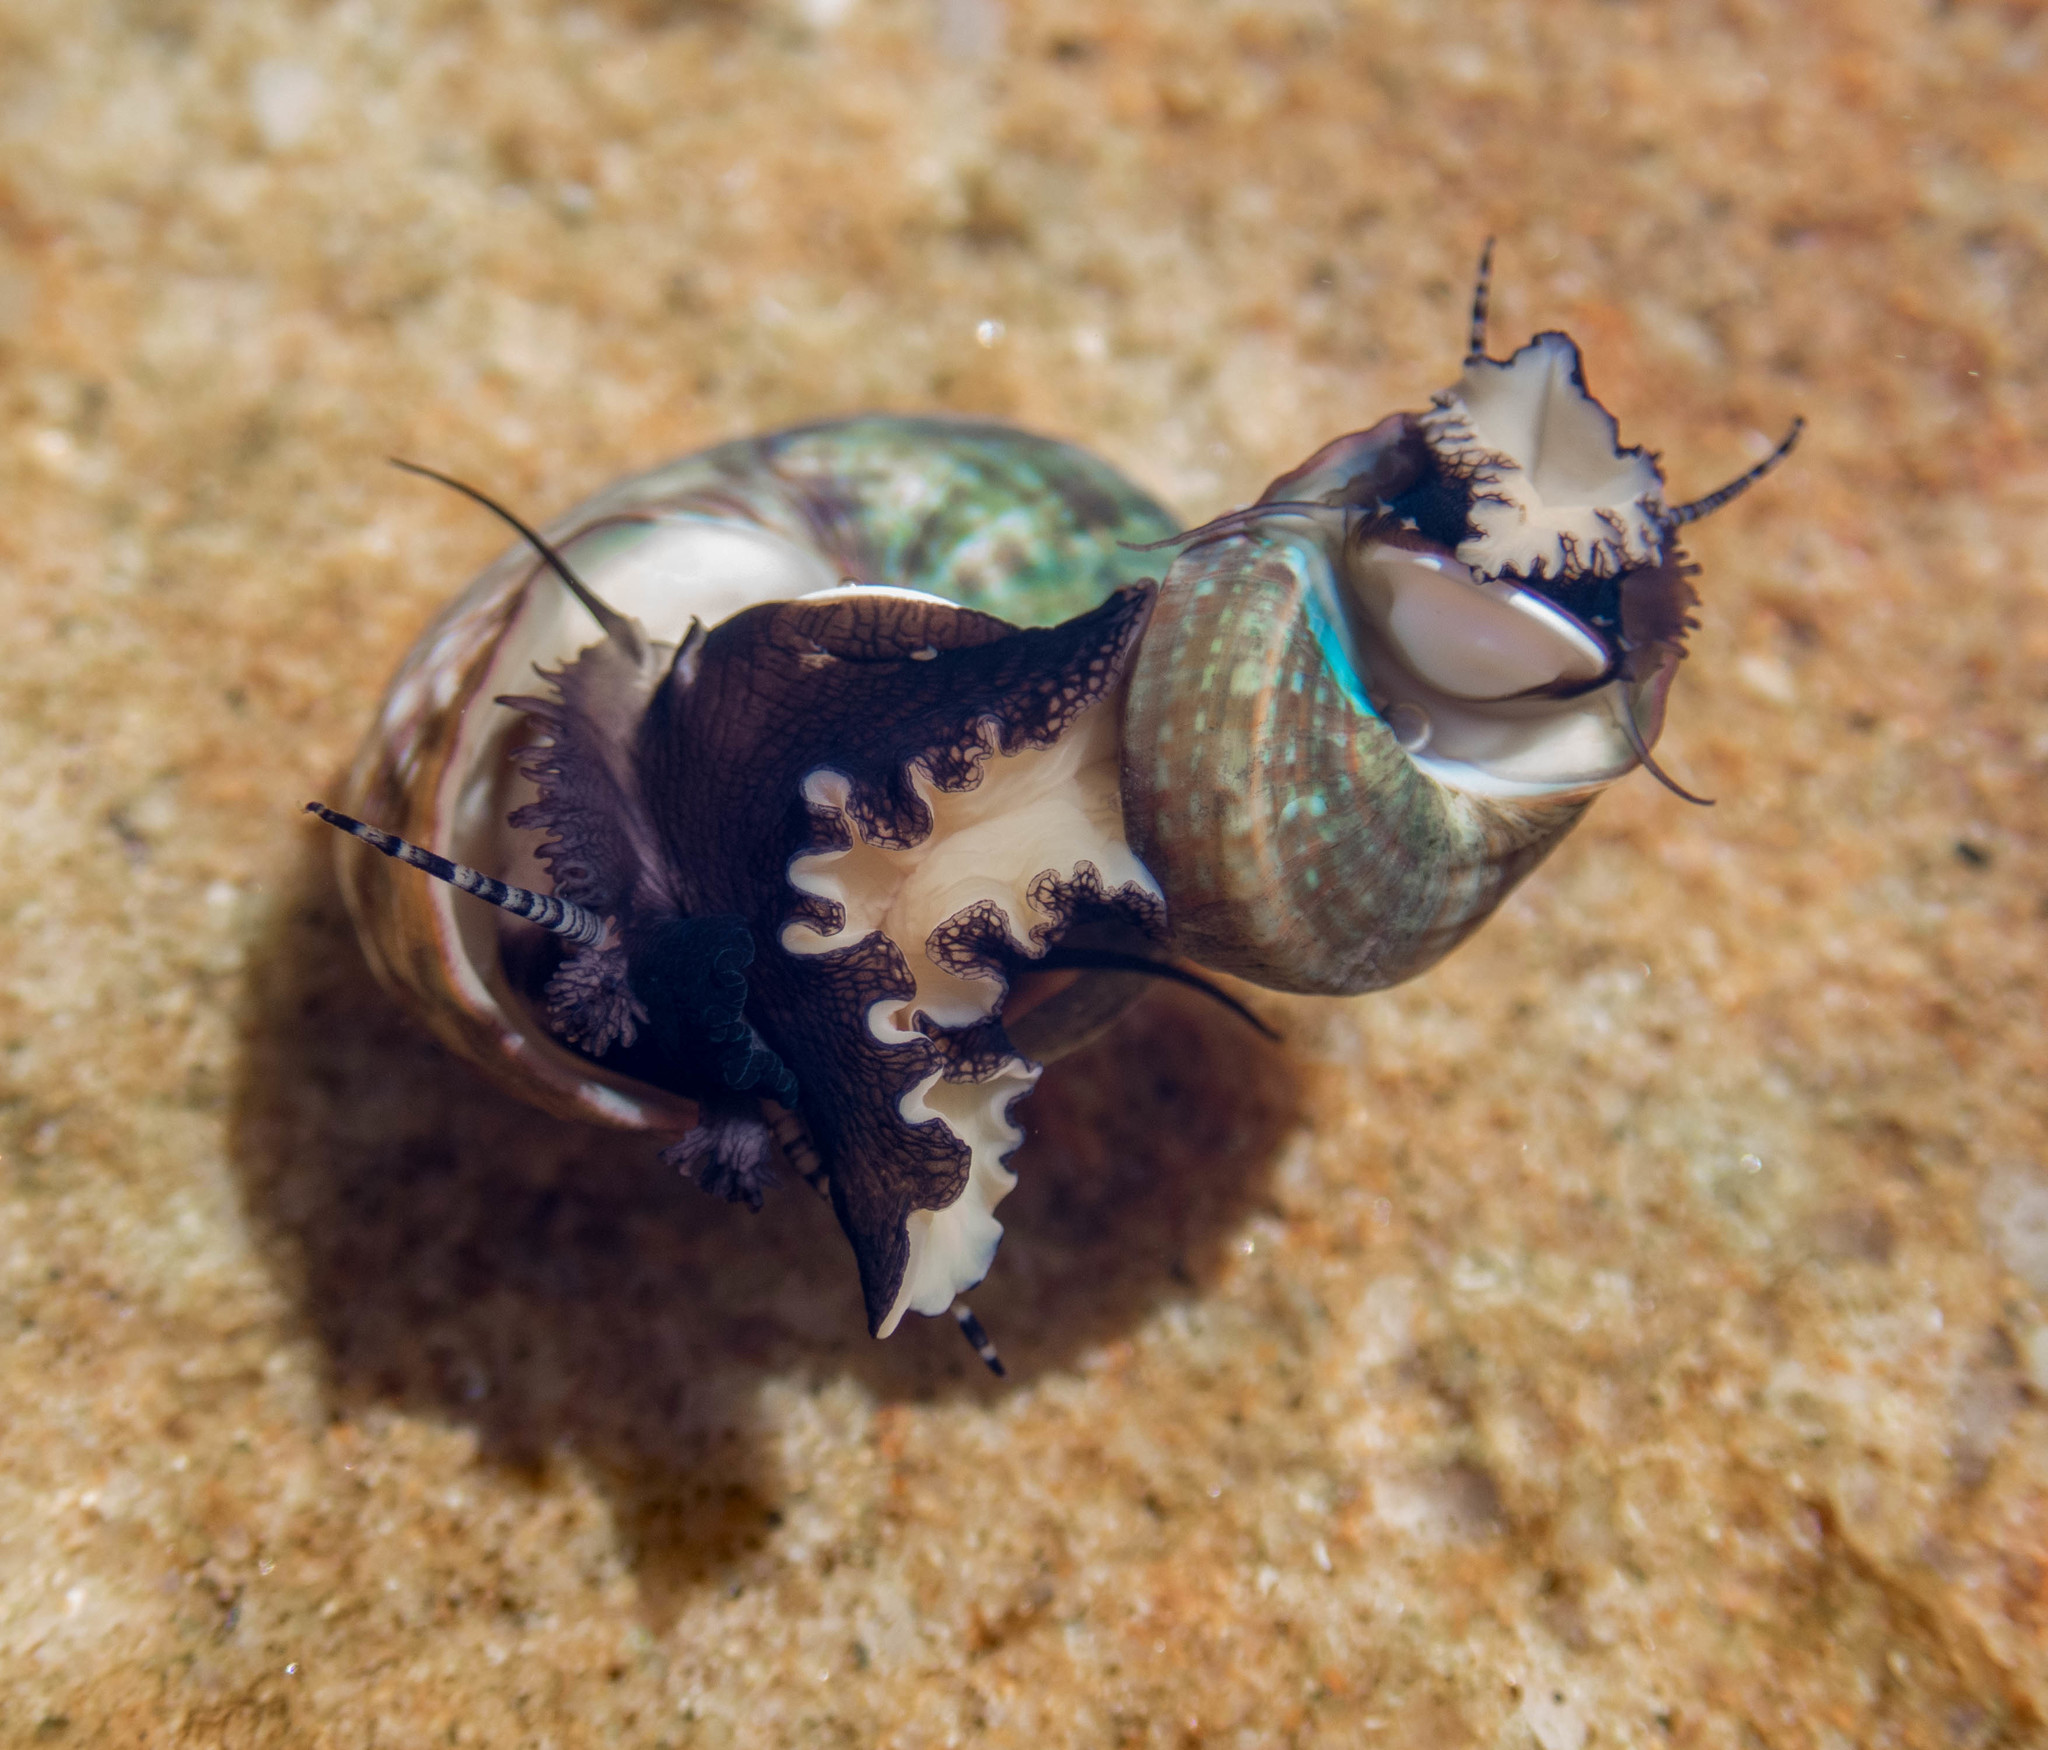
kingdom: Animalia
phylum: Mollusca
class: Gastropoda
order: Trochida
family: Turbinidae
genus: Lunella
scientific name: Lunella undulata
